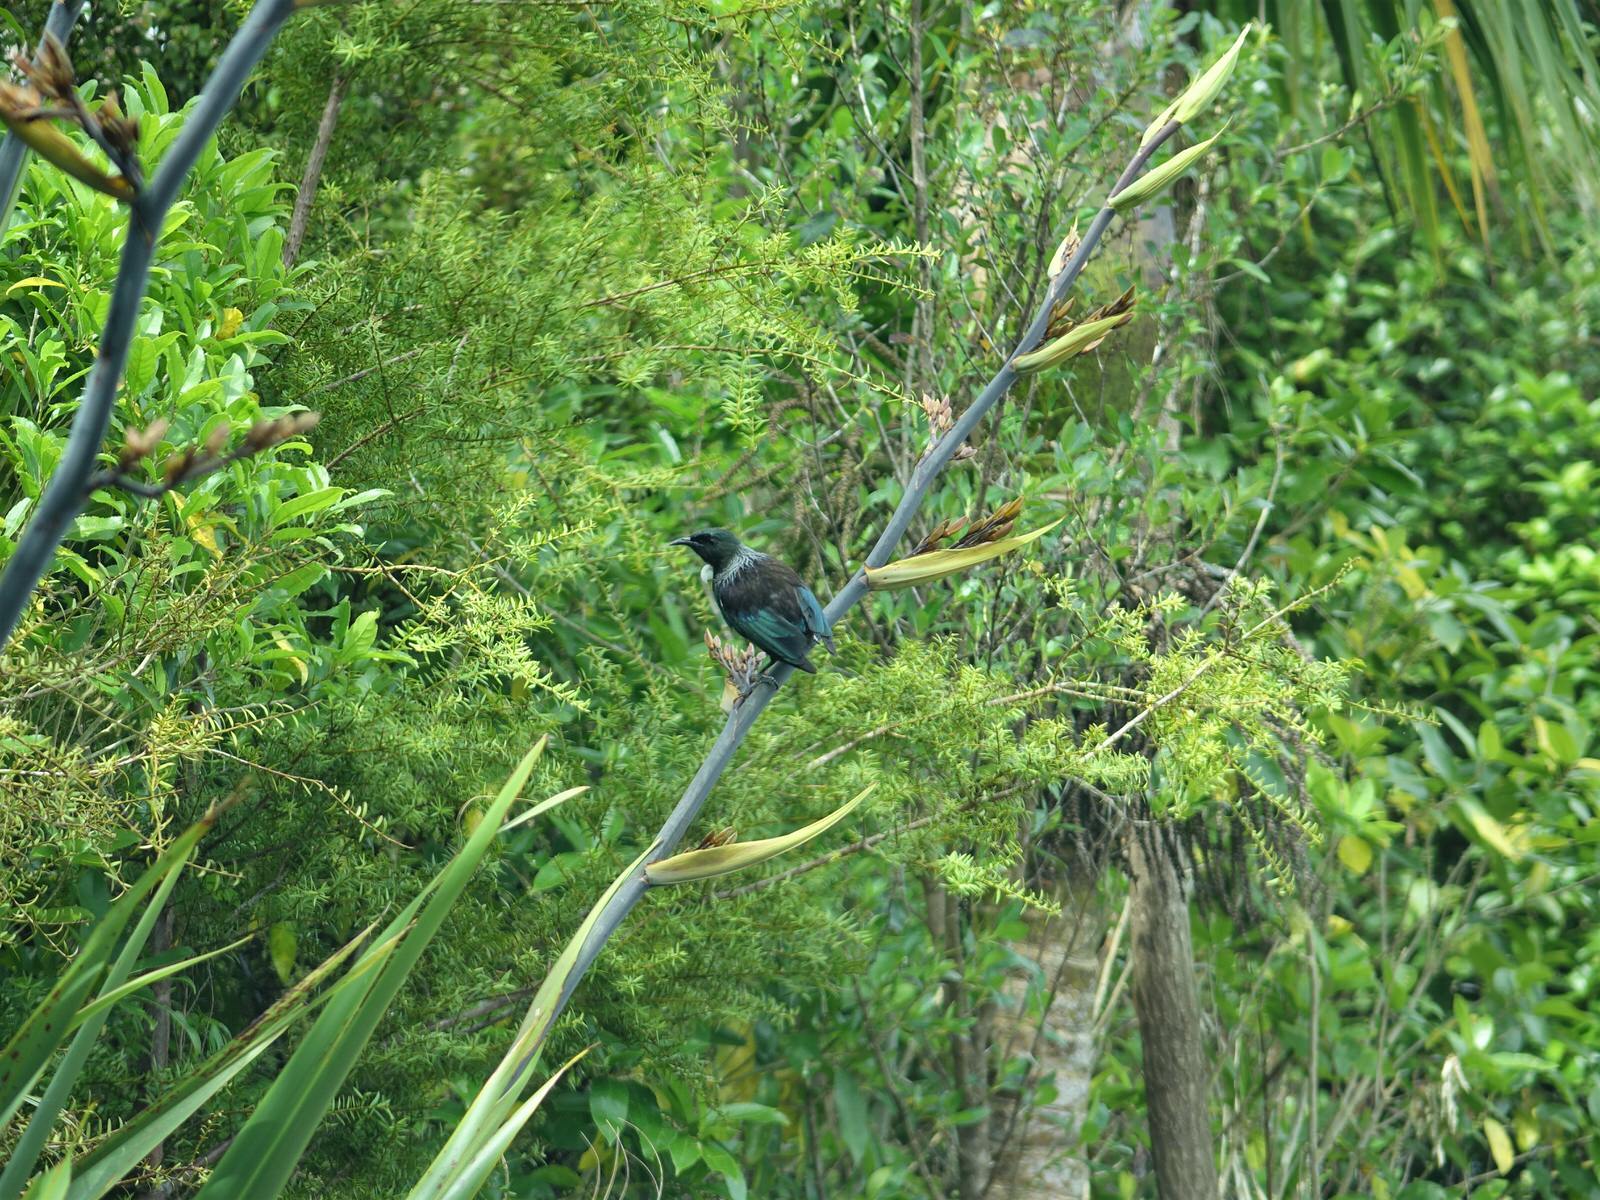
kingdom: Animalia
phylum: Chordata
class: Aves
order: Passeriformes
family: Meliphagidae
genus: Prosthemadera
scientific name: Prosthemadera novaeseelandiae
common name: Tui
